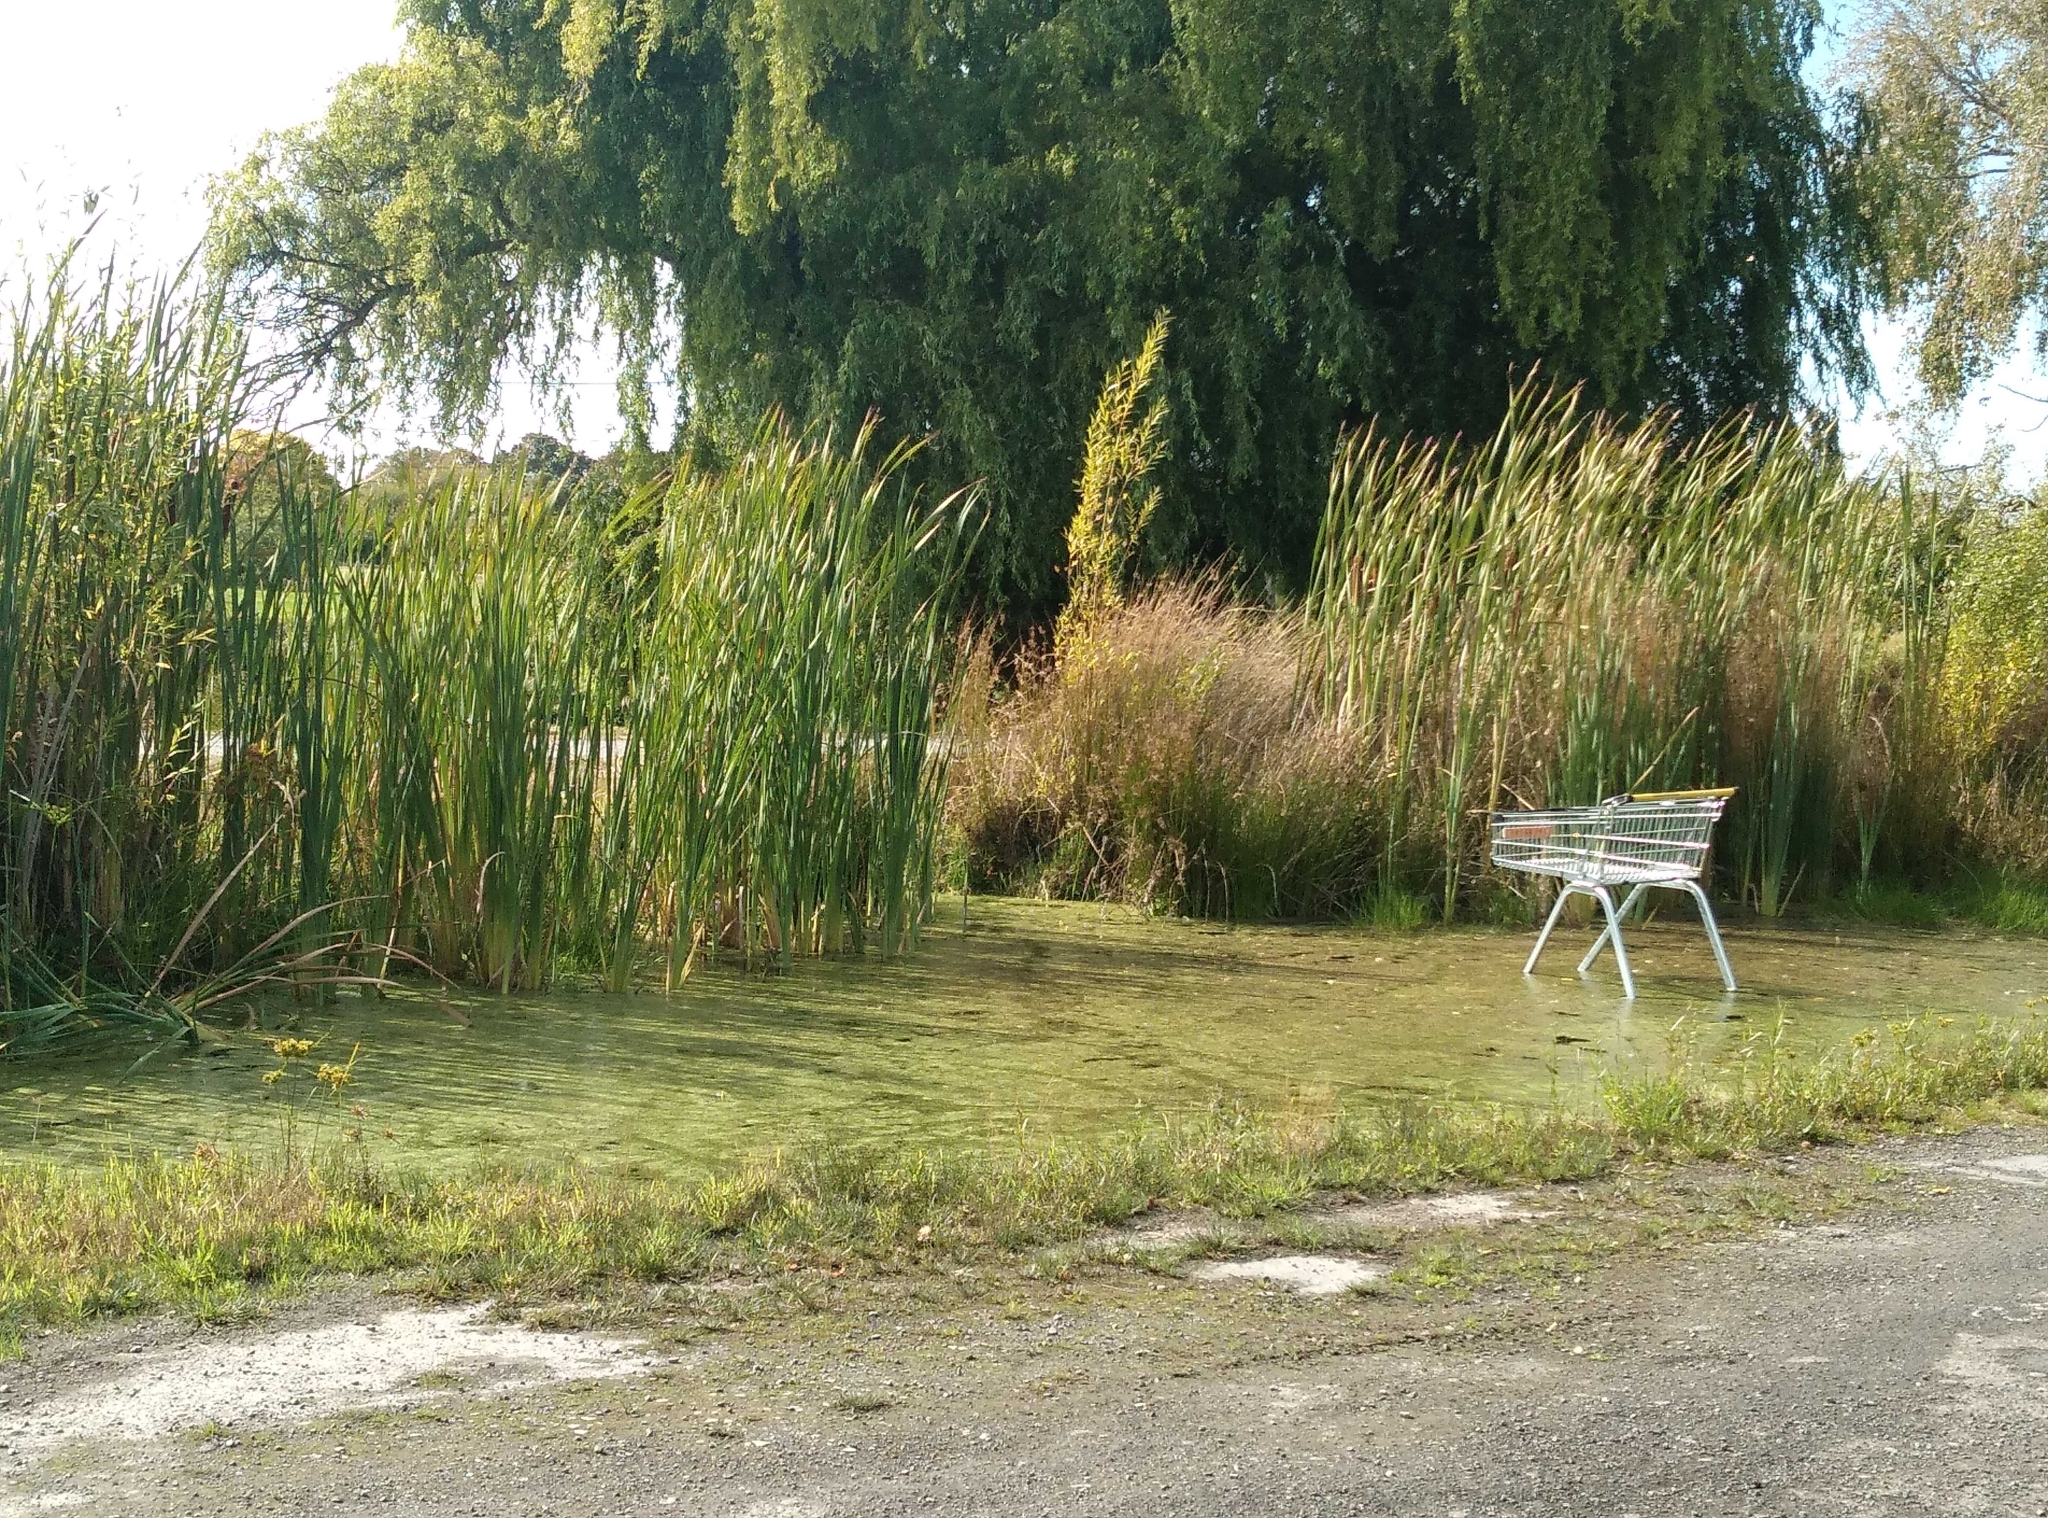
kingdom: Plantae
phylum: Tracheophyta
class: Liliopsida
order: Poales
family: Typhaceae
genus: Typha
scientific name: Typha orientalis
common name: Bullrush
